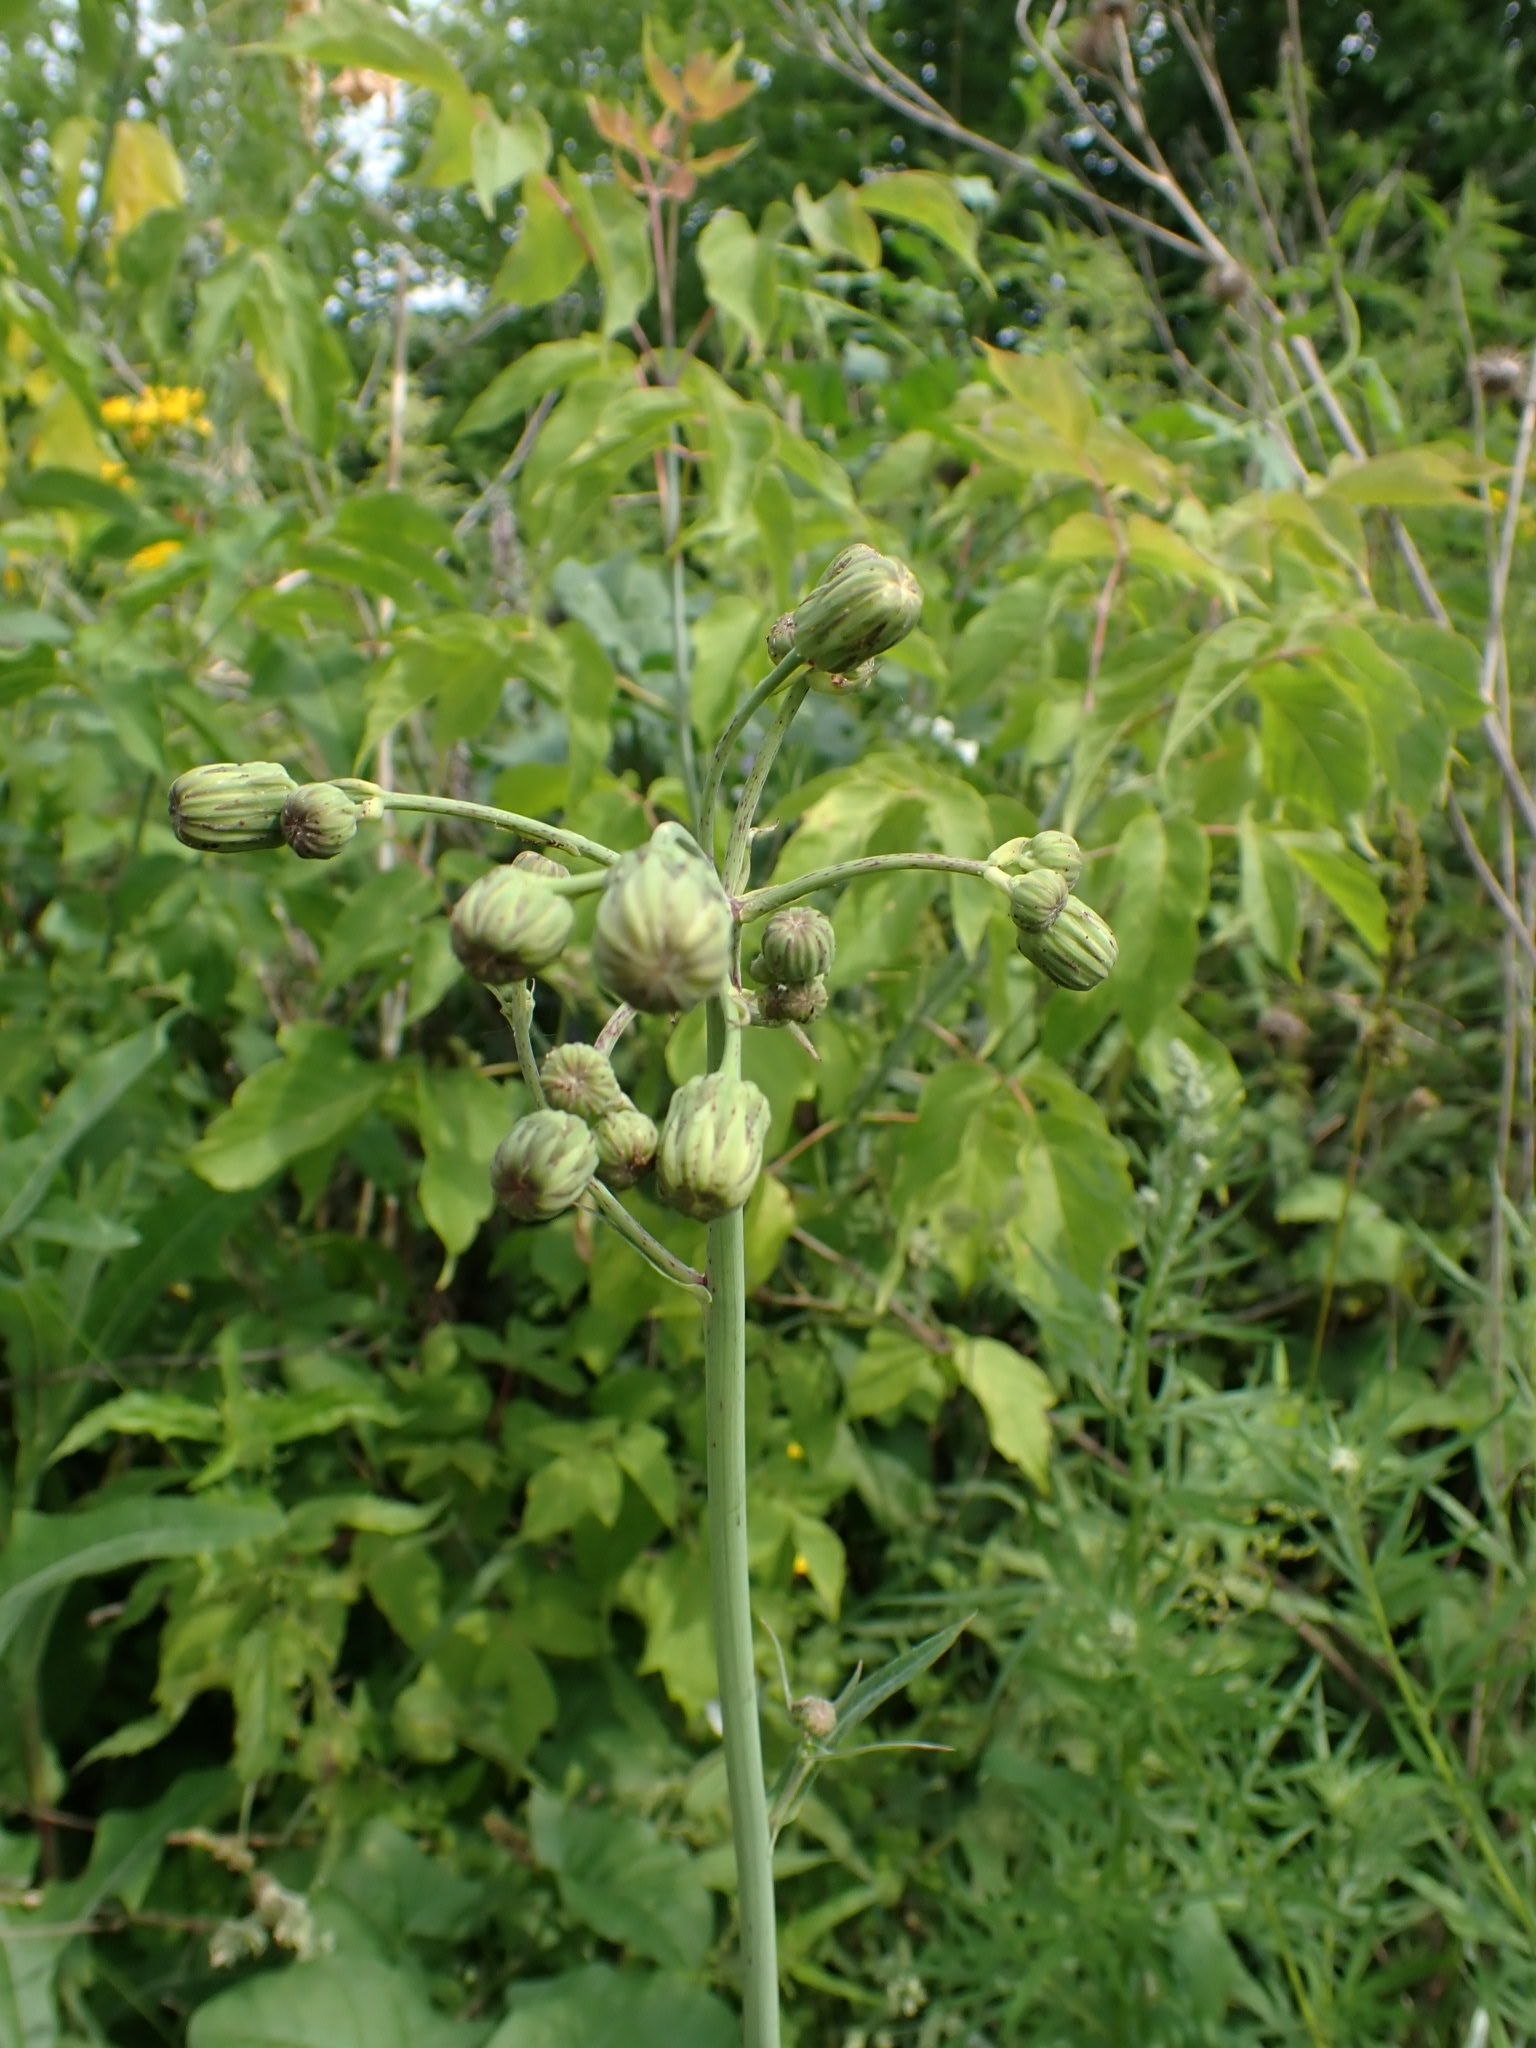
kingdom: Plantae
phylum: Tracheophyta
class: Magnoliopsida
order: Asterales
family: Asteraceae
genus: Sonchus
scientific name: Sonchus arvensis
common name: Perennial sow-thistle
